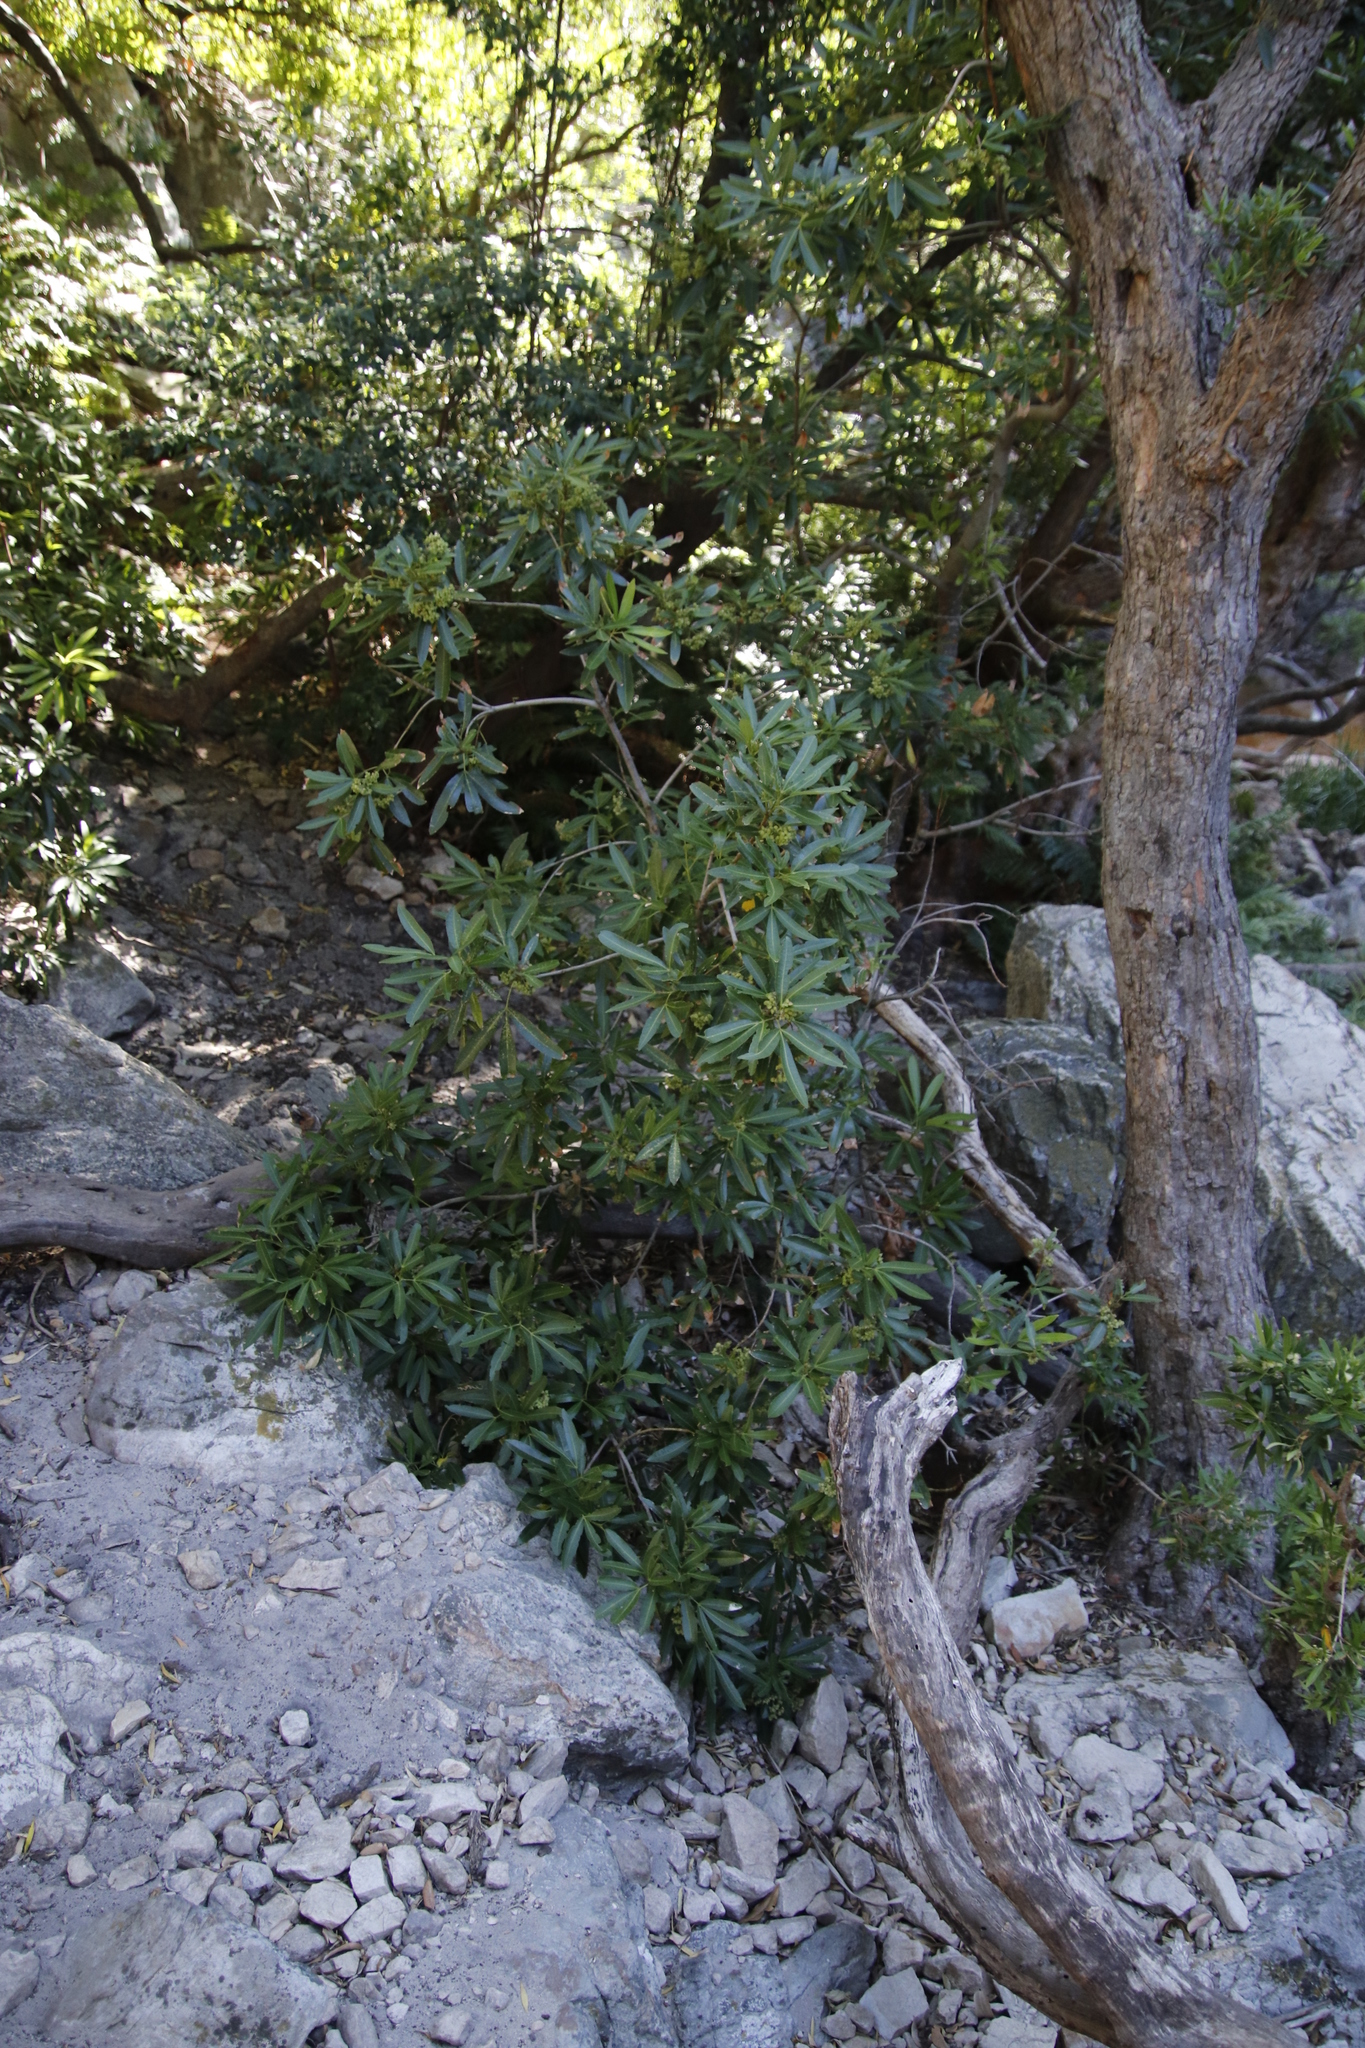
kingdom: Plantae
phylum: Tracheophyta
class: Magnoliopsida
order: Oxalidales
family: Cunoniaceae
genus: Platylophus
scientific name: Platylophus trifoliatus
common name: White alder
